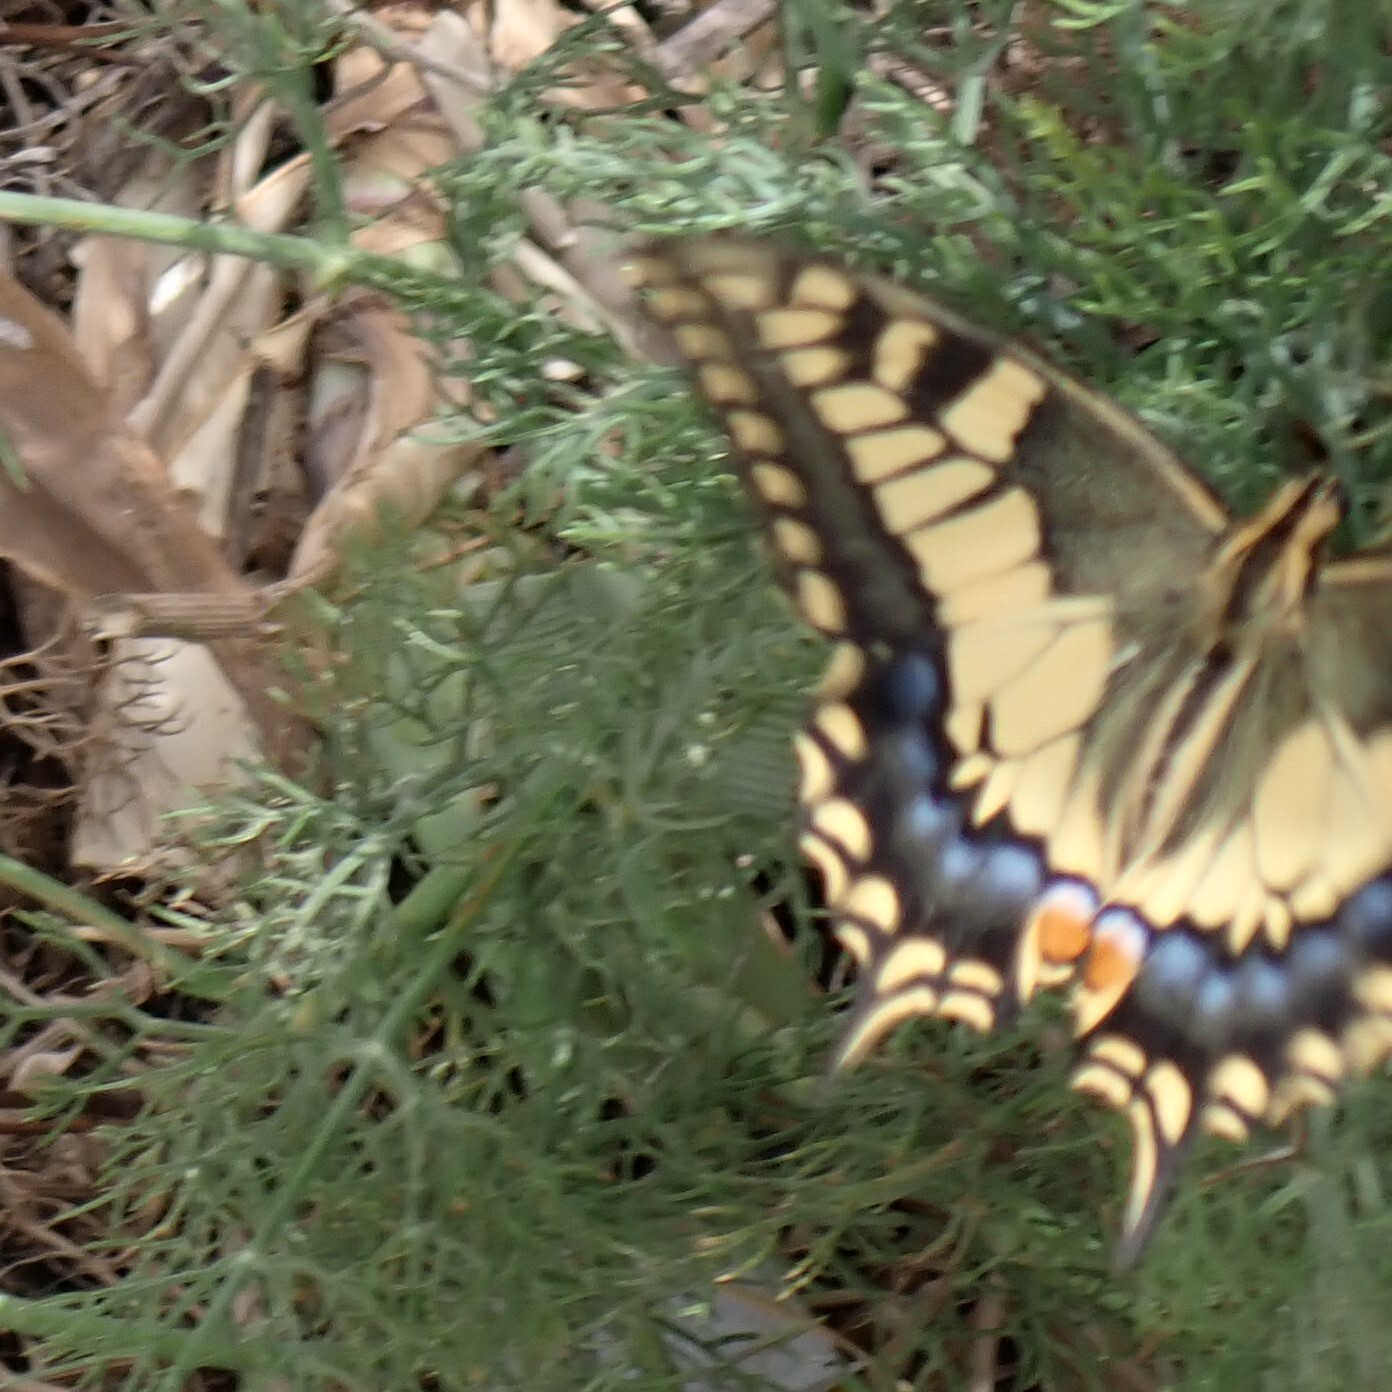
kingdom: Animalia
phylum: Arthropoda
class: Insecta
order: Lepidoptera
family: Papilionidae
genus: Papilio
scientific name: Papilio machaon
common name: Swallowtail
